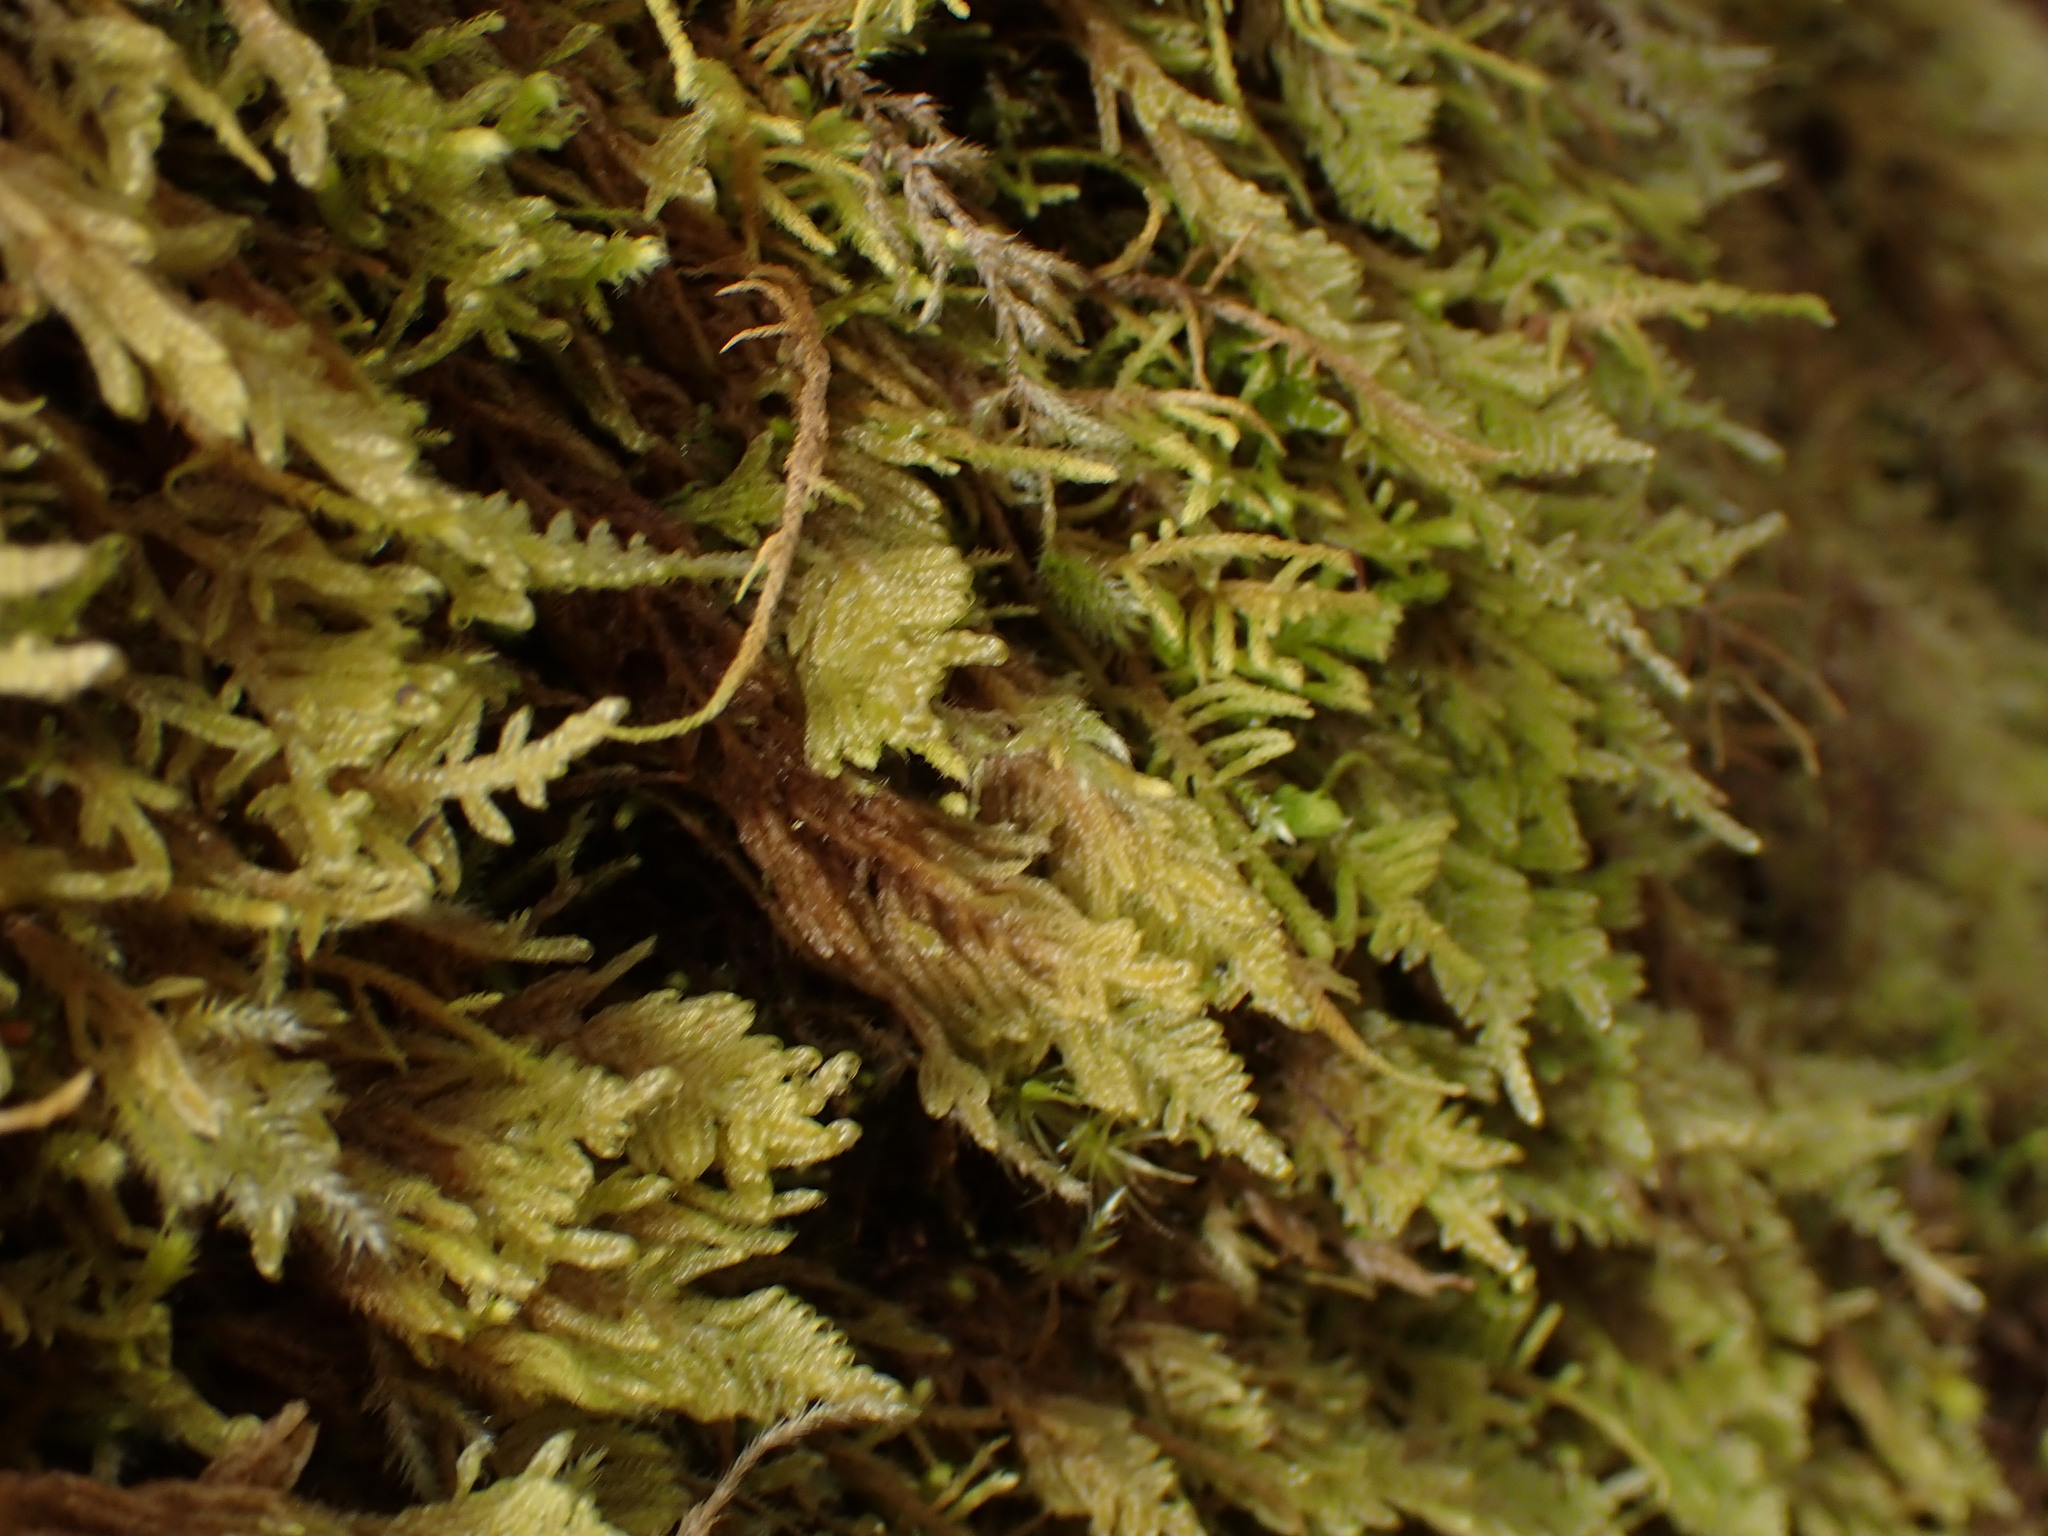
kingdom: Plantae
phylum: Bryophyta
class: Bryopsida
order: Hypnales
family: Stereodontaceae
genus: Stereodon
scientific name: Stereodon subimponens
